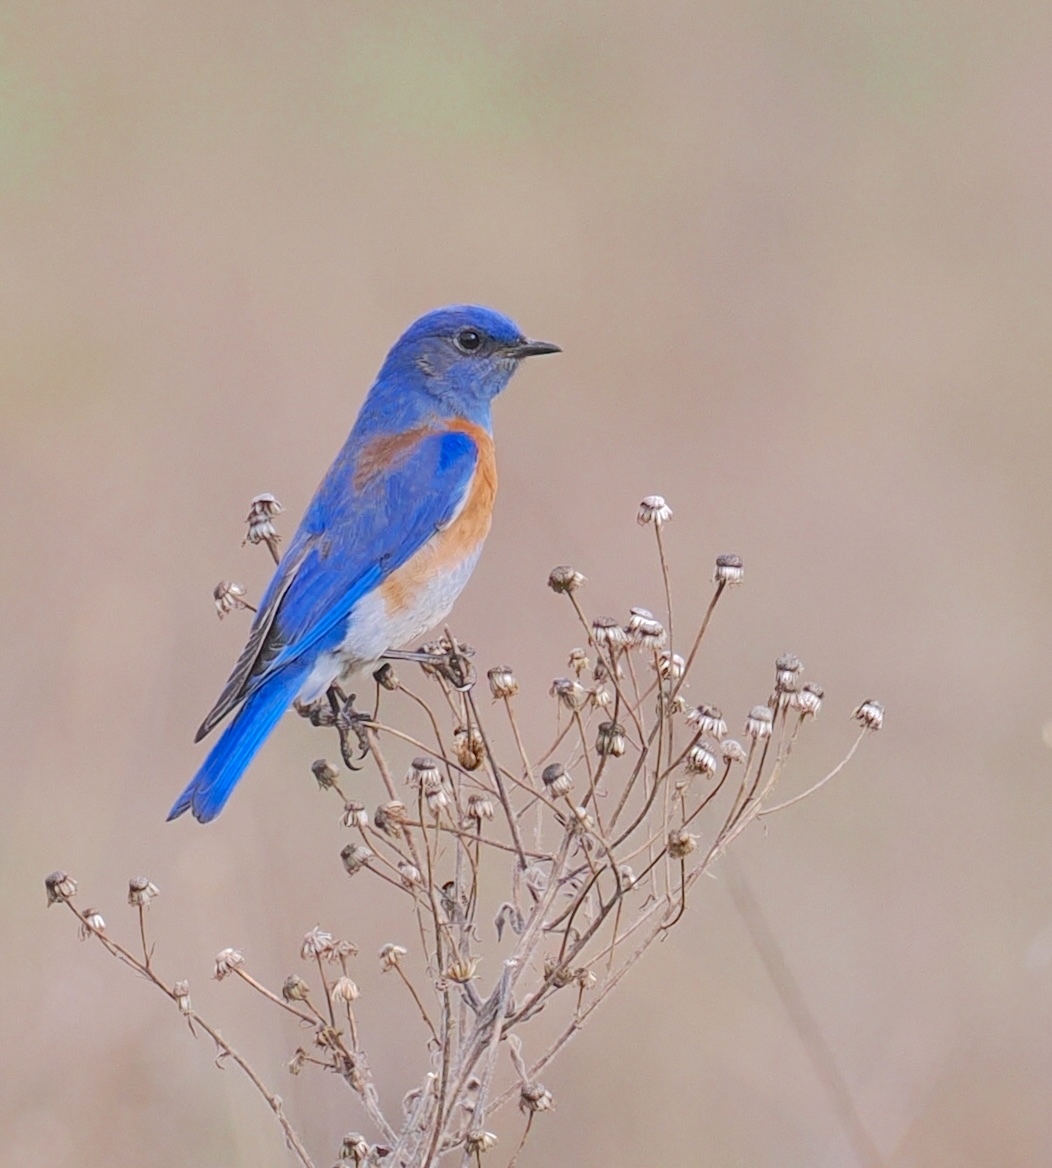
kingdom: Animalia
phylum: Chordata
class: Aves
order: Passeriformes
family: Turdidae
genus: Sialia
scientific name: Sialia mexicana
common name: Western bluebird
